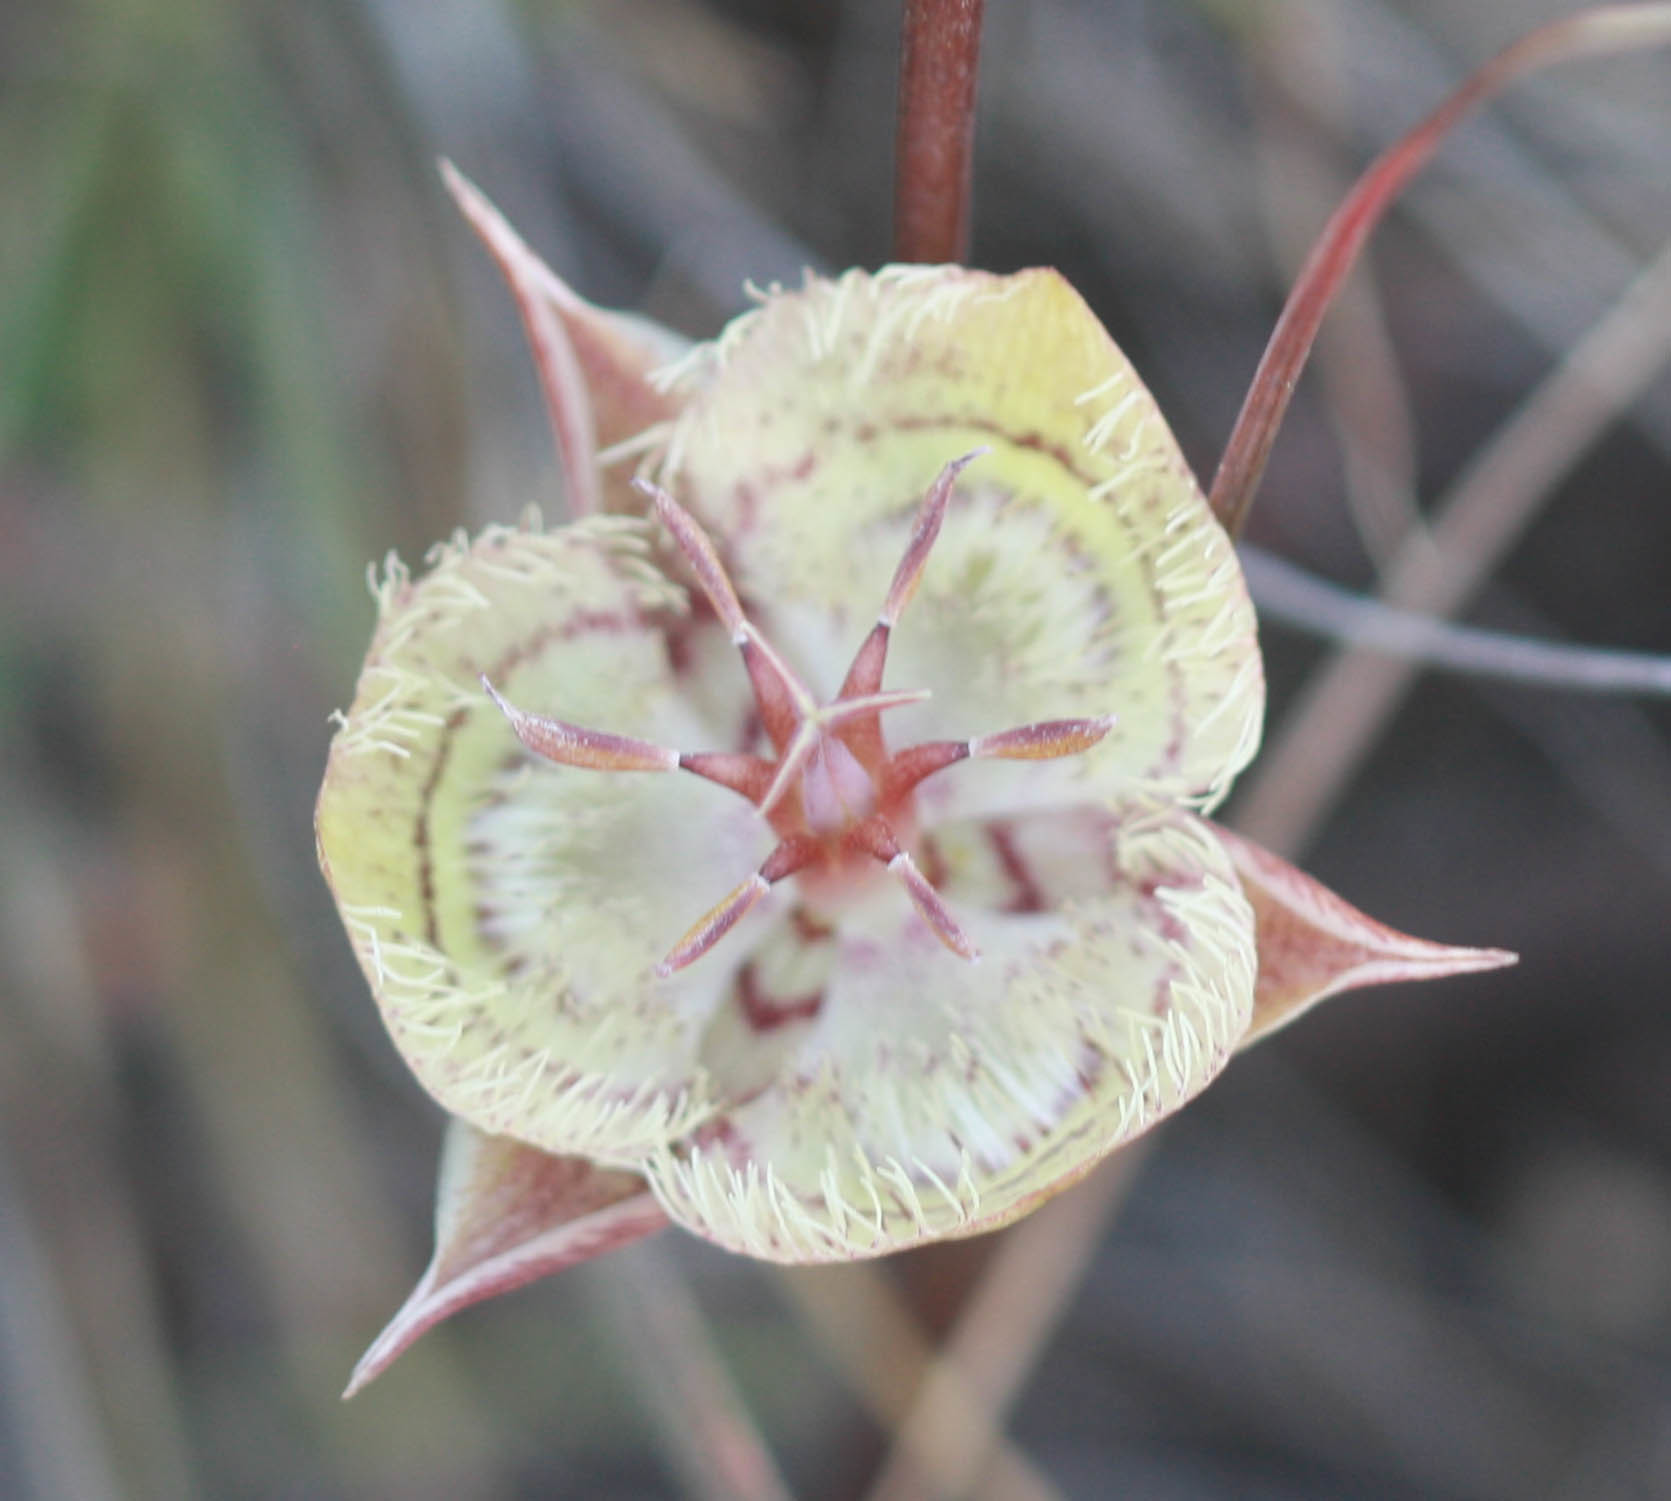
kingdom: Plantae
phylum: Tracheophyta
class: Liliopsida
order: Liliales
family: Liliaceae
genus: Calochortus
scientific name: Calochortus tiburonensis
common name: Tiburon mariposa-lily
